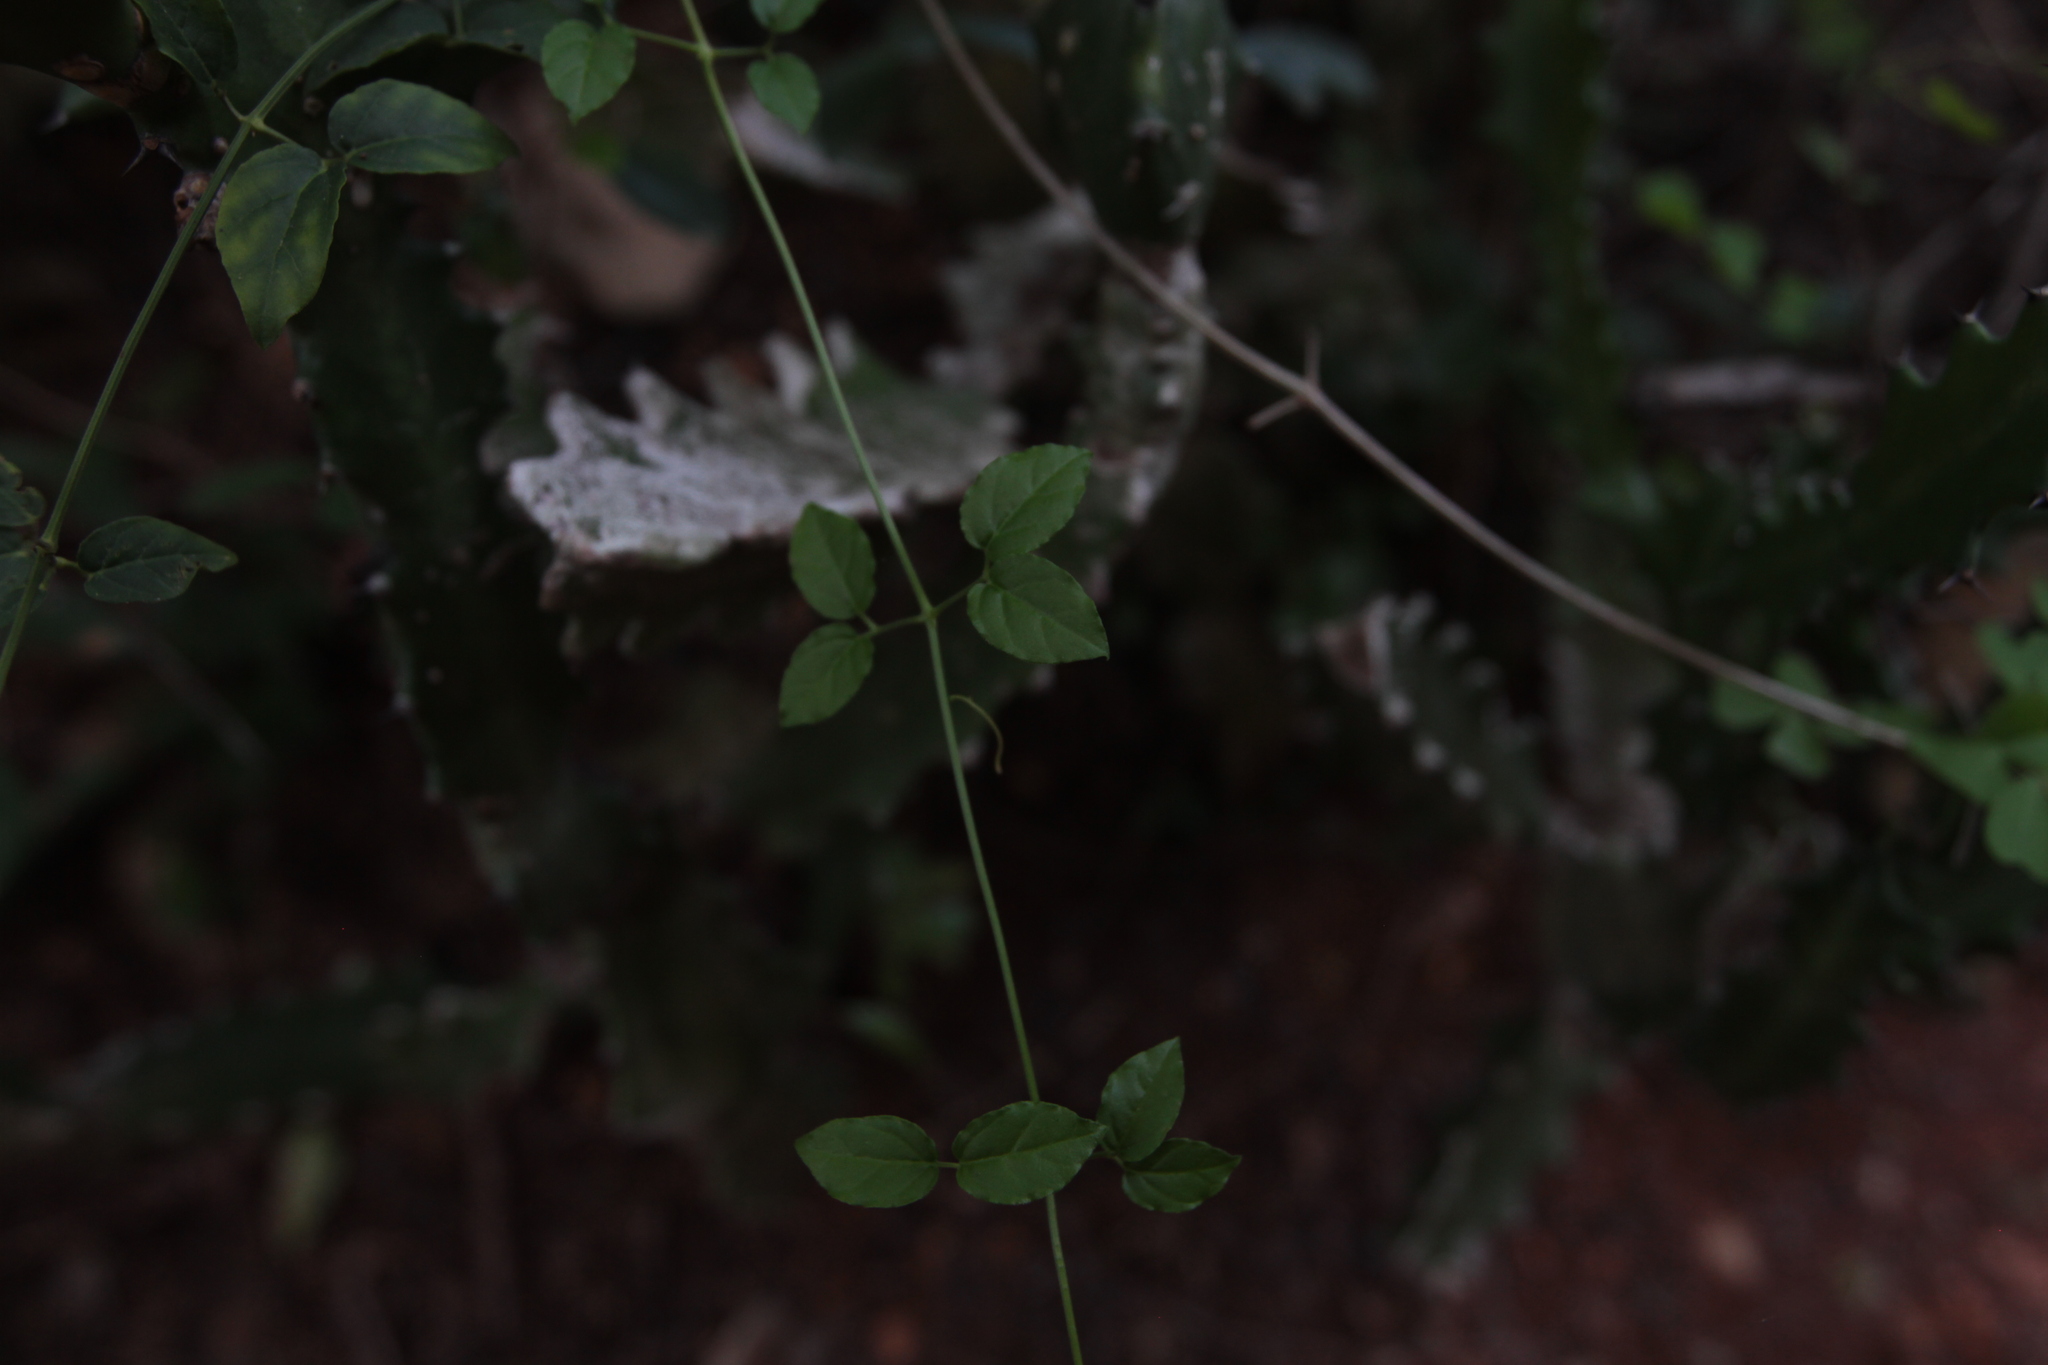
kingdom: Plantae
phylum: Tracheophyta
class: Magnoliopsida
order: Lamiales
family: Bignoniaceae
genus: Dolichandra
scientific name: Dolichandra unguis-cati
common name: Catclaw vine
